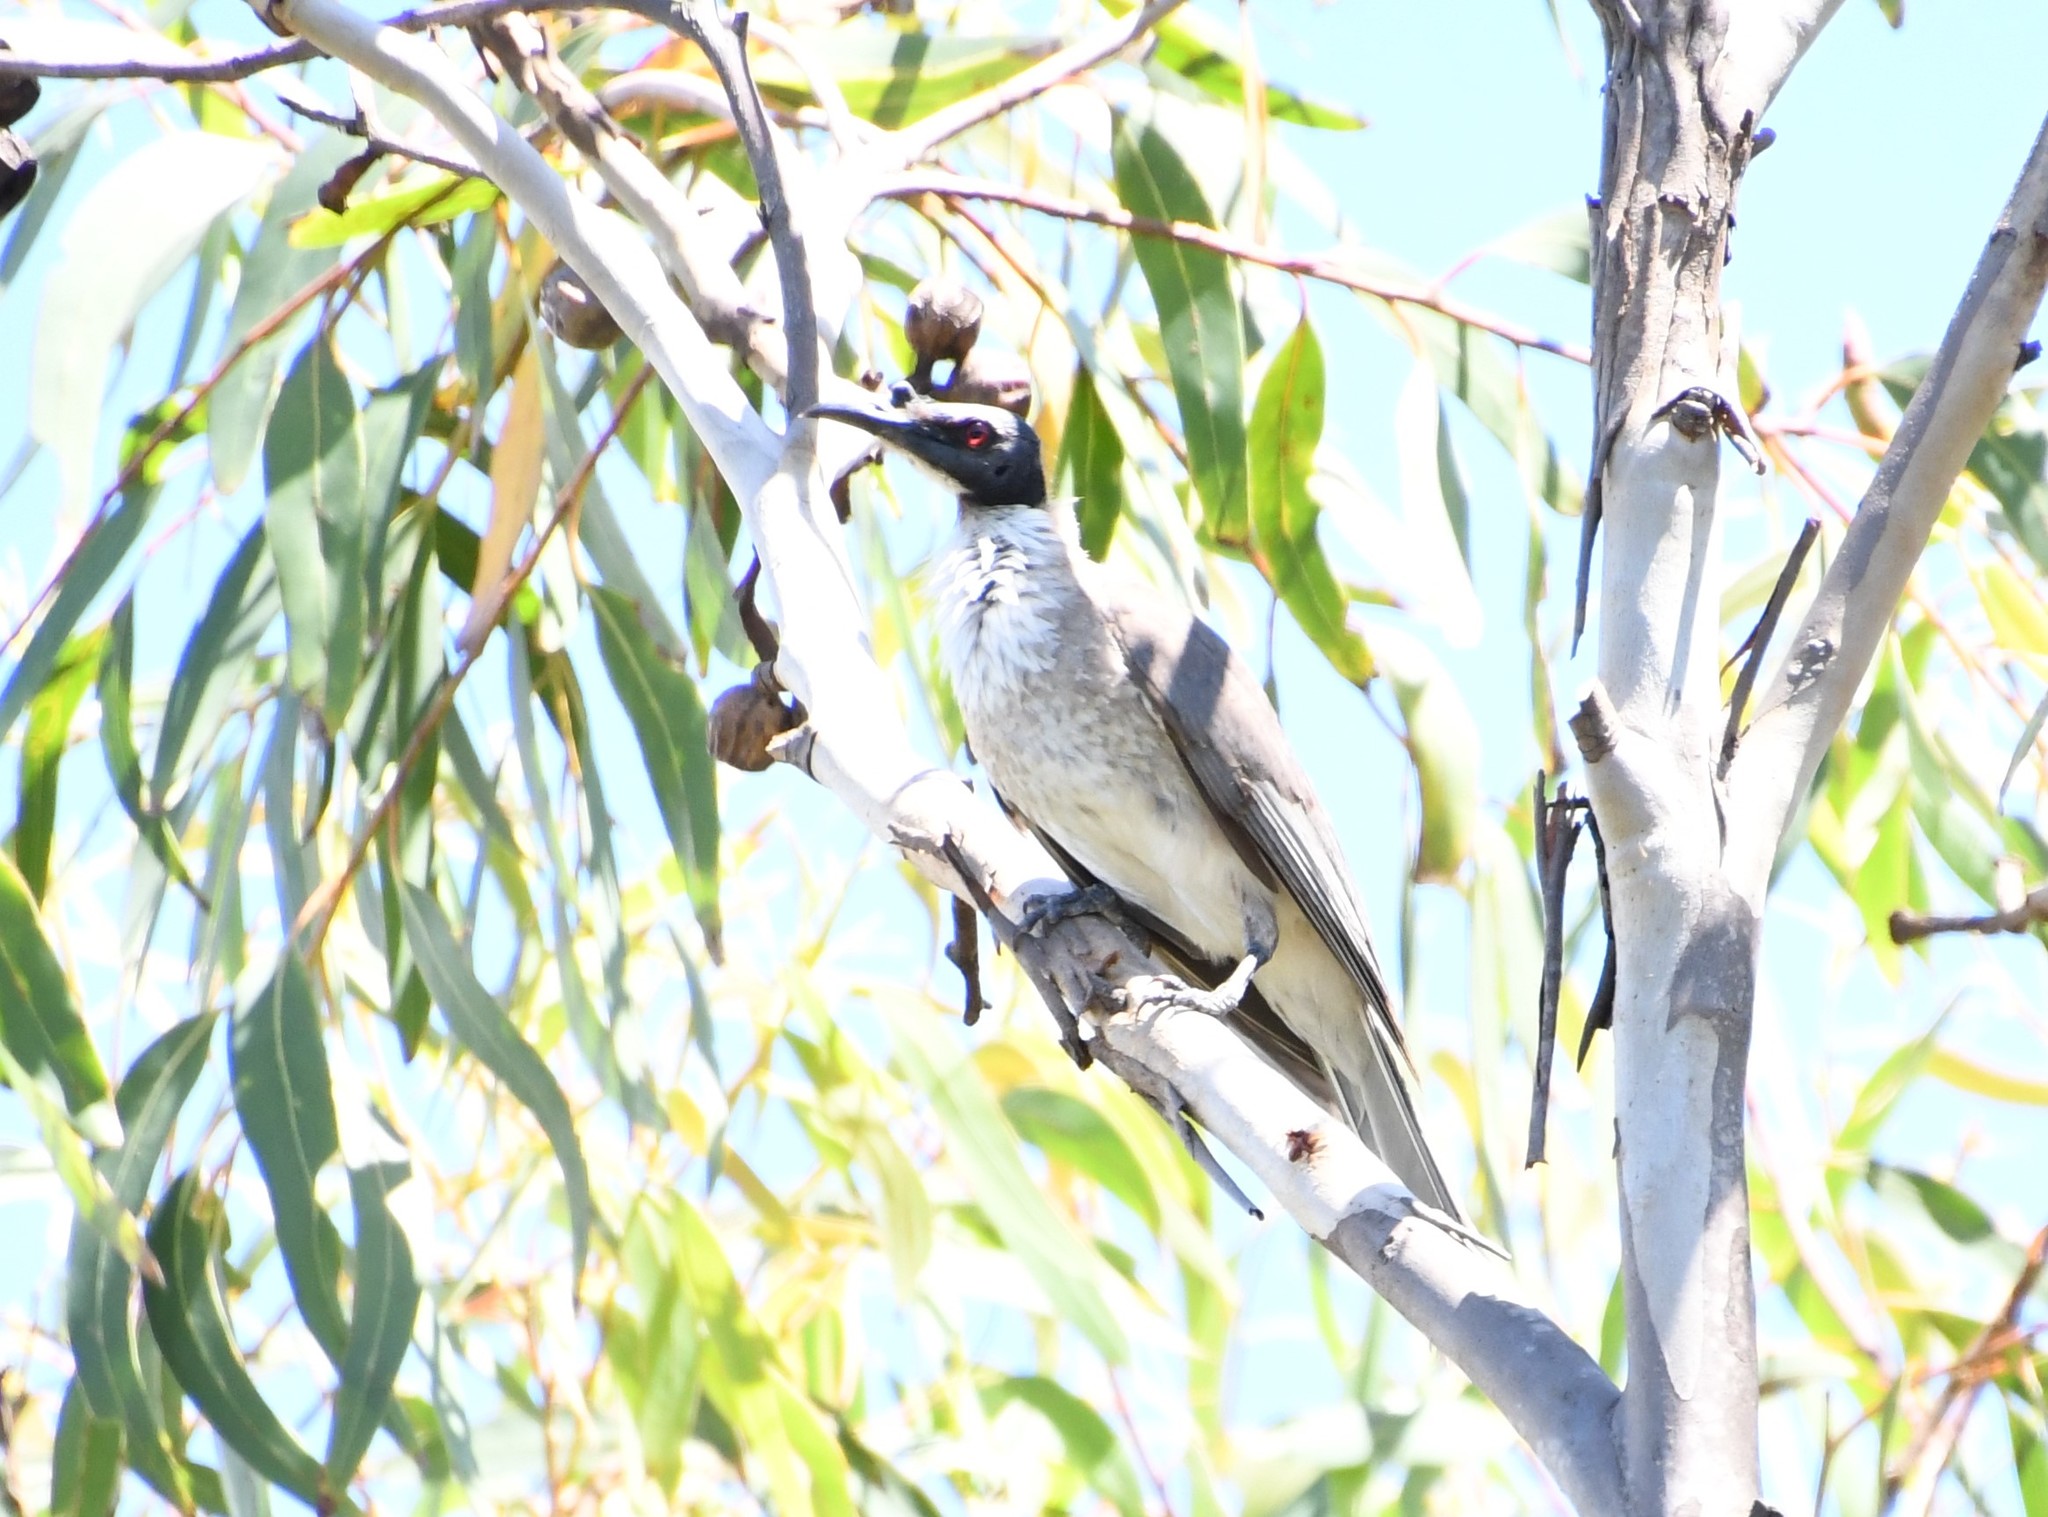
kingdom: Animalia
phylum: Chordata
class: Aves
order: Passeriformes
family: Meliphagidae
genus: Philemon
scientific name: Philemon corniculatus
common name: Noisy friarbird
